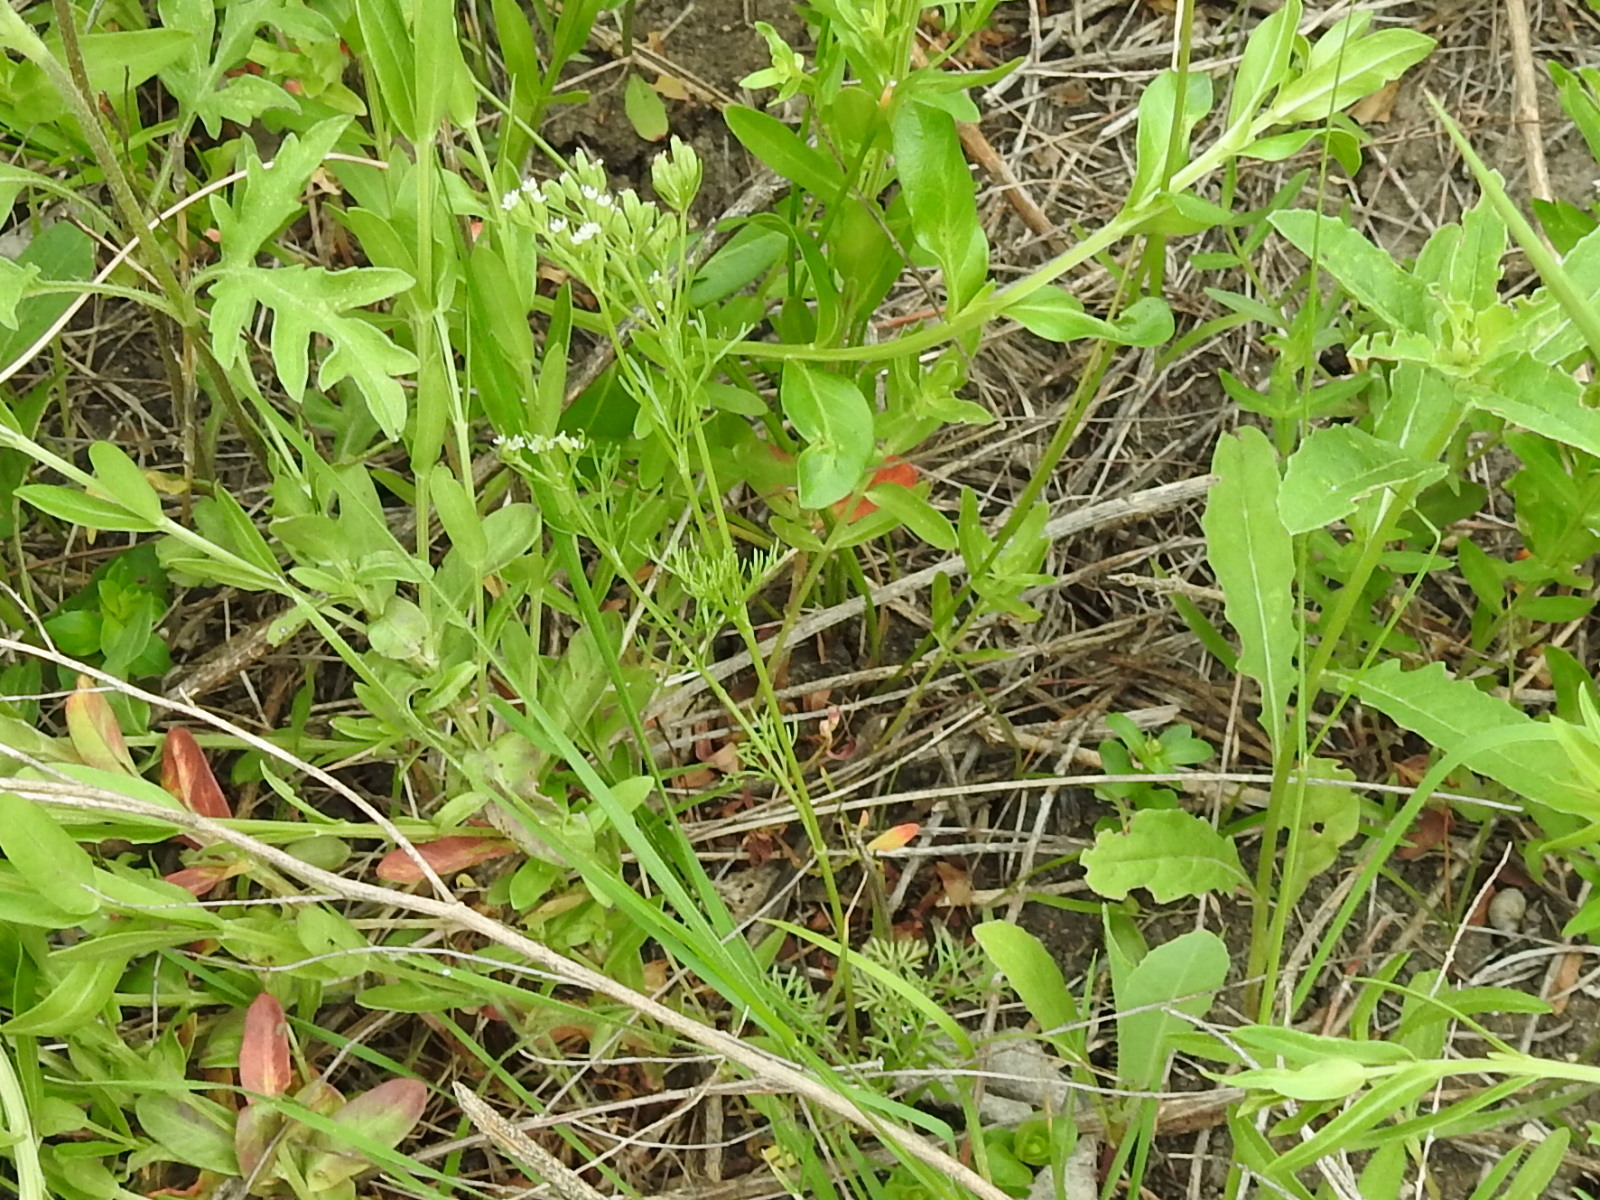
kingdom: Plantae
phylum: Tracheophyta
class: Magnoliopsida
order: Apiales
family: Apiaceae
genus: Ammoselinum
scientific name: Ammoselinum popei
